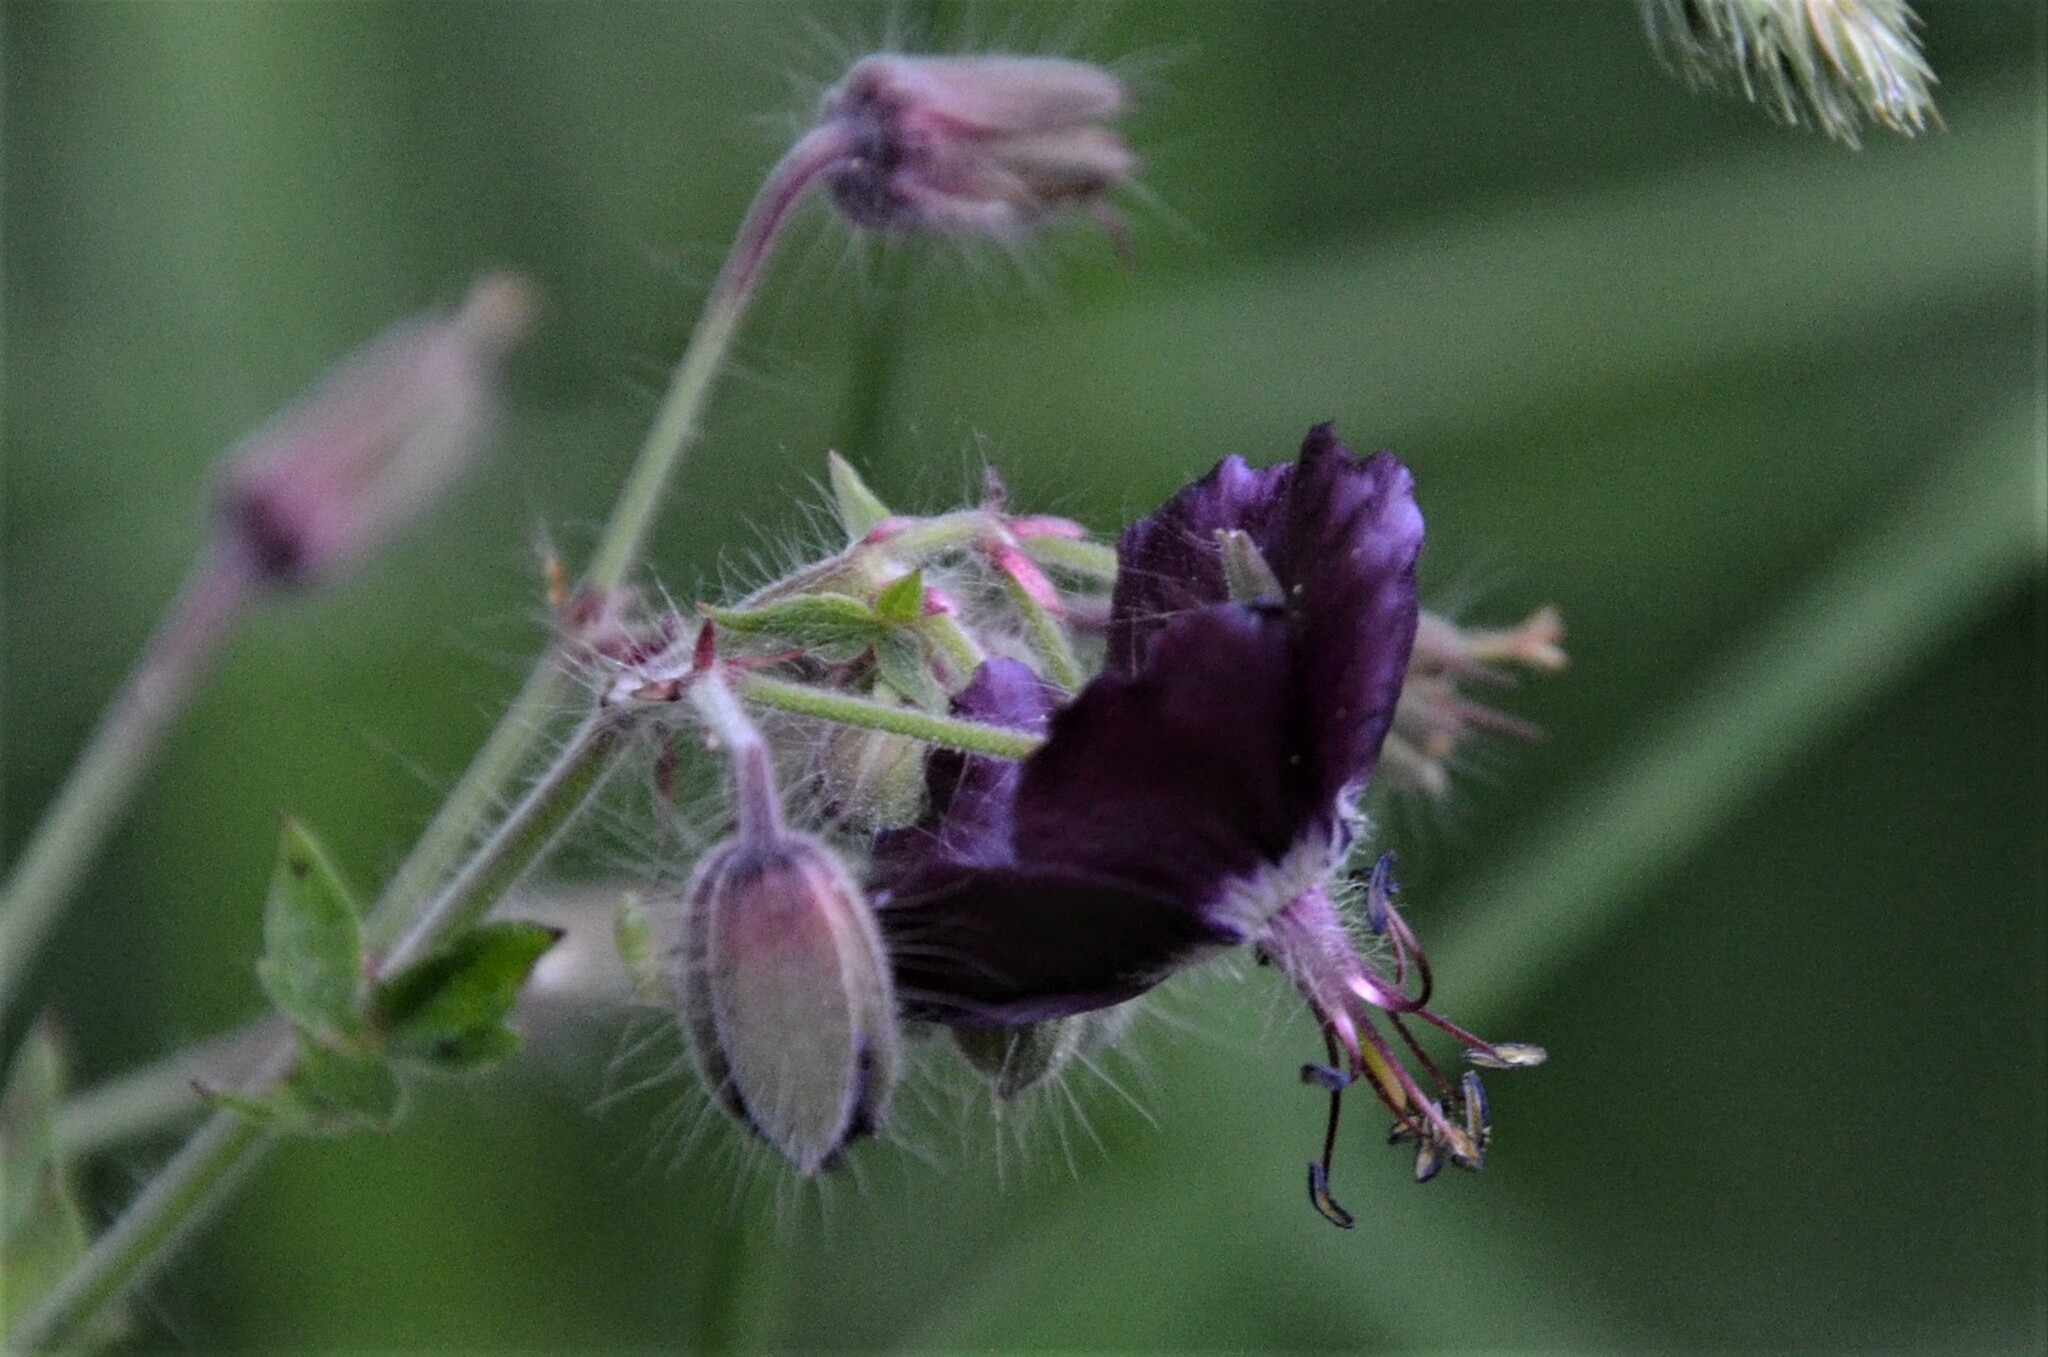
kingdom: Plantae
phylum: Tracheophyta
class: Magnoliopsida
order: Geraniales
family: Geraniaceae
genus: Geranium
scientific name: Geranium phaeum
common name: Dusky crane's-bill
